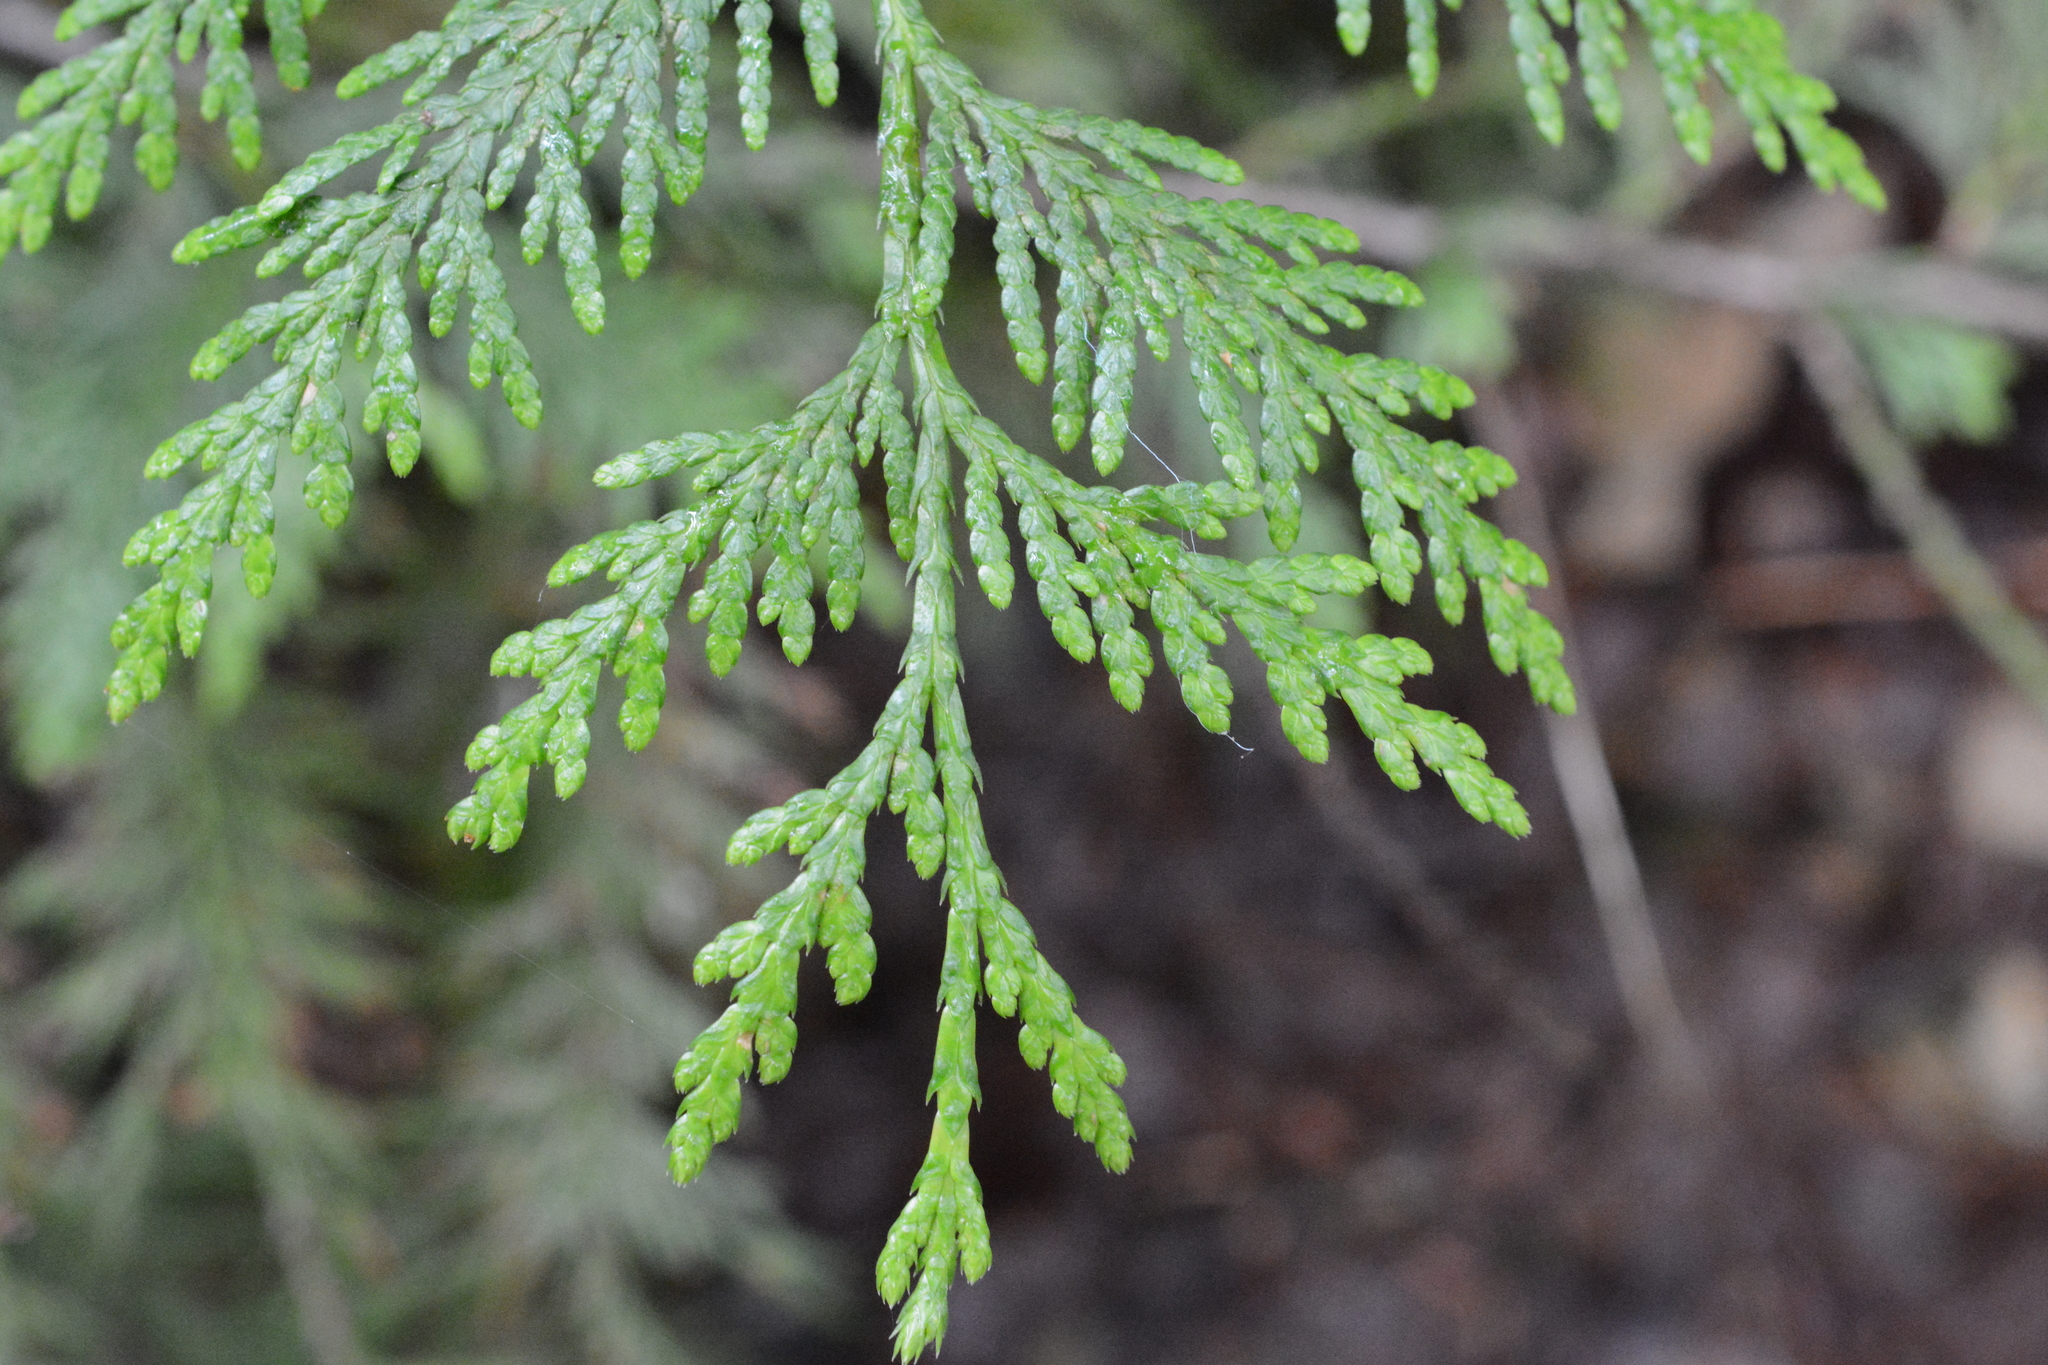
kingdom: Plantae
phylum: Tracheophyta
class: Pinopsida
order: Pinales
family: Cupressaceae
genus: Thuja
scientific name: Thuja plicata
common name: Western red-cedar
